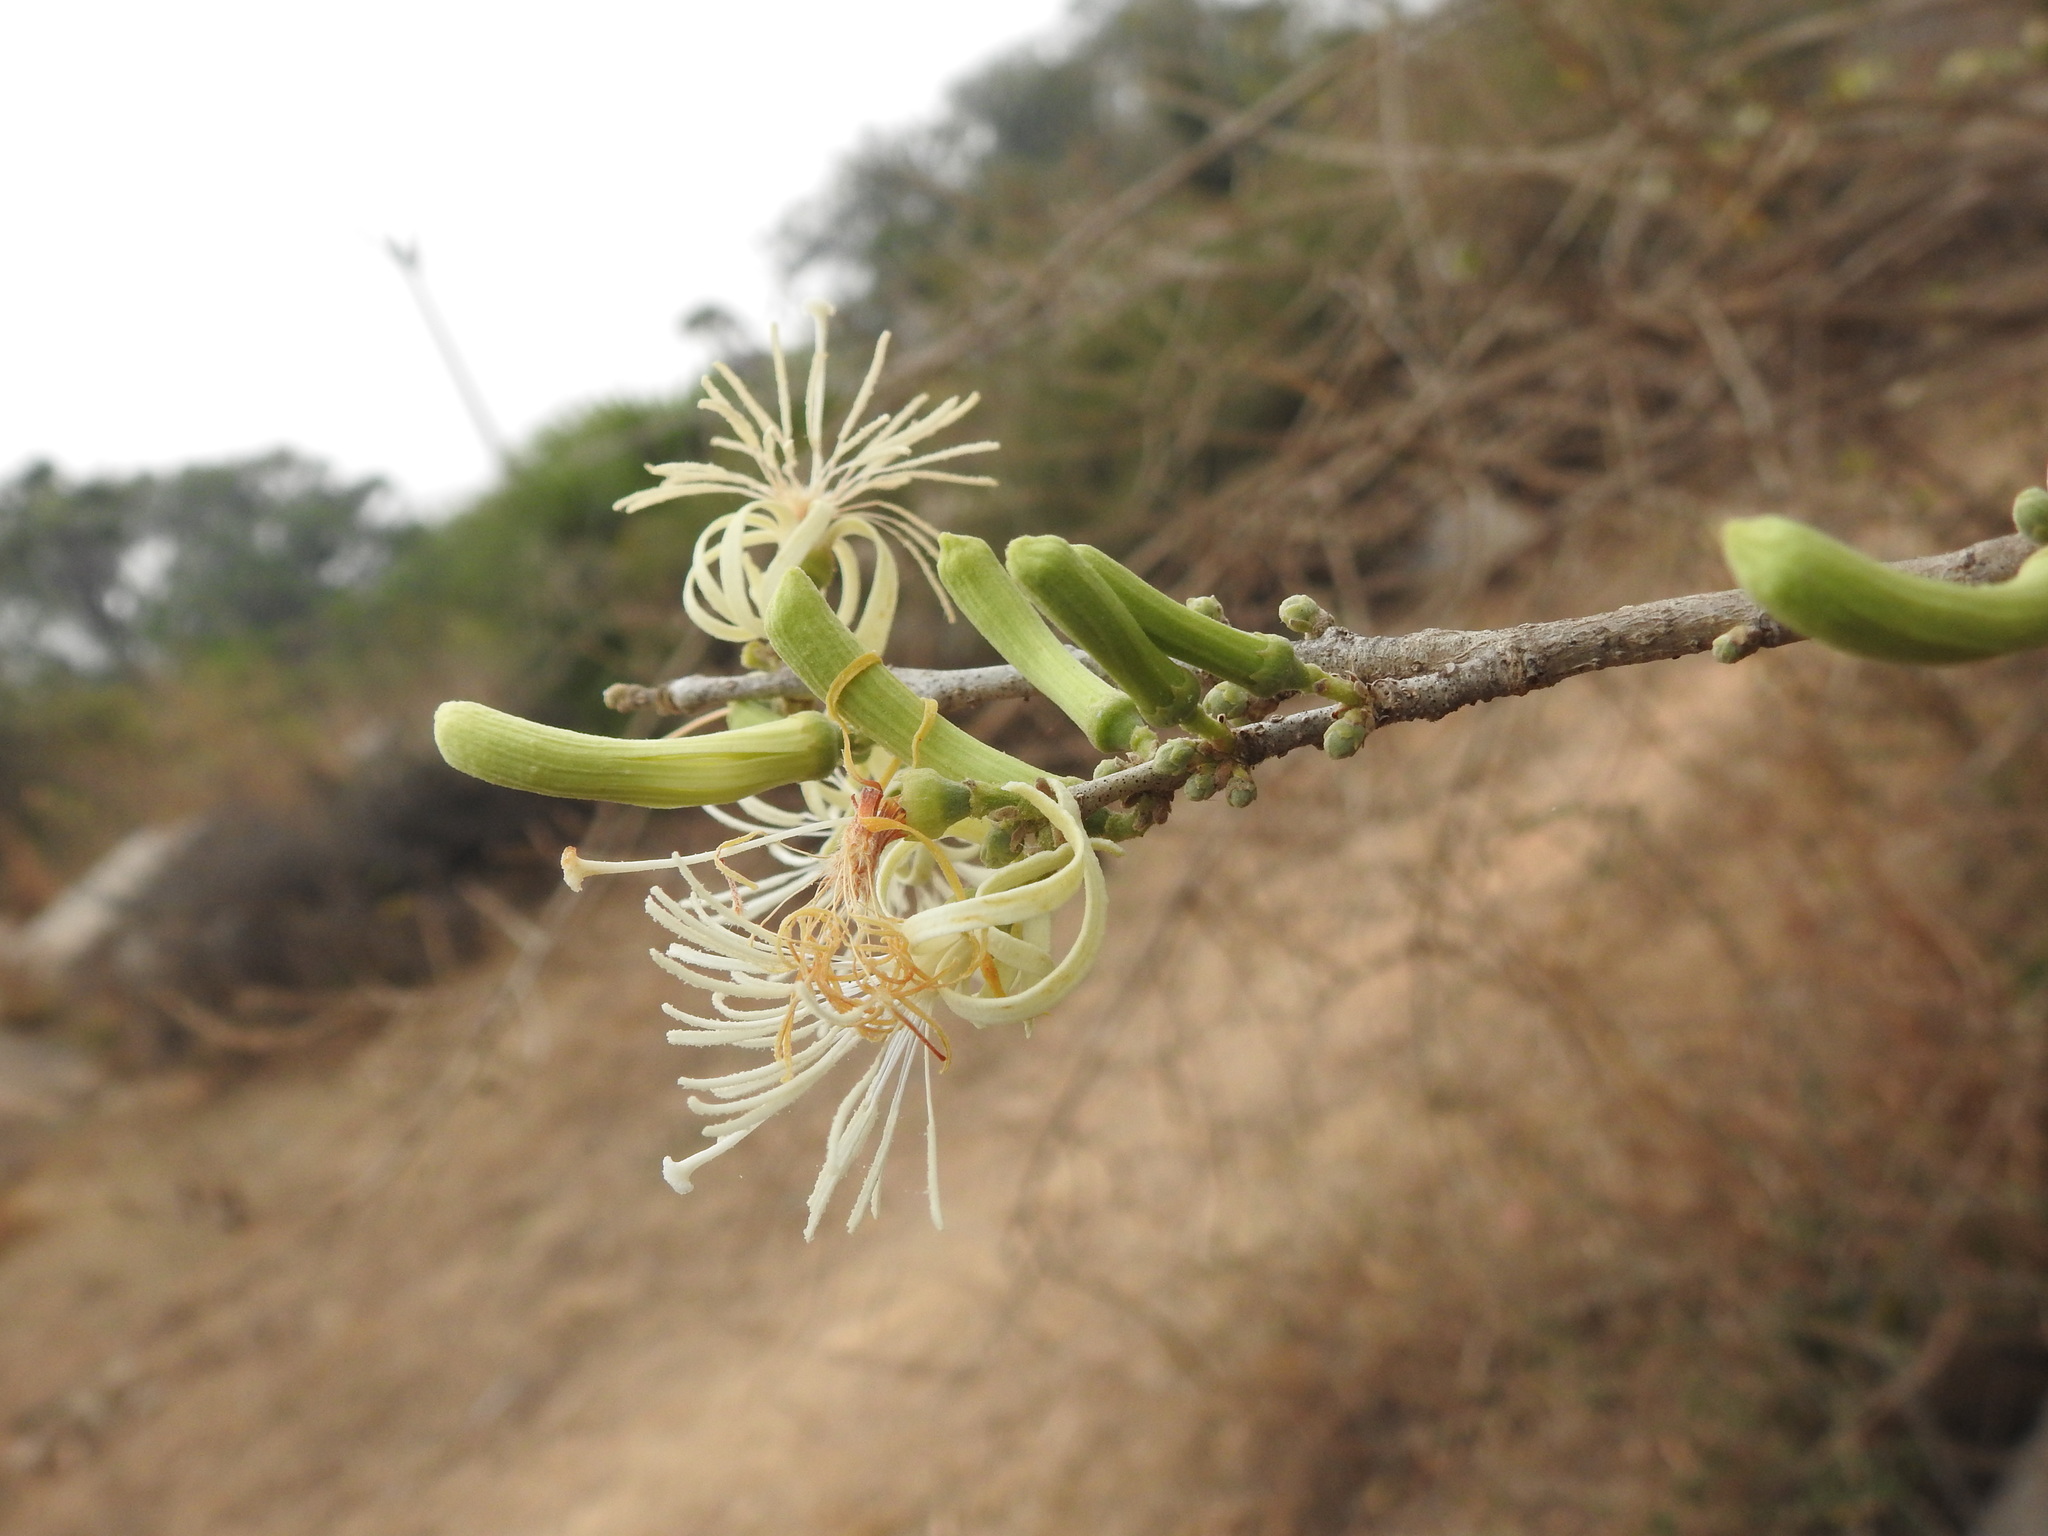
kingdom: Plantae
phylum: Tracheophyta
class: Magnoliopsida
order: Cornales
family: Cornaceae
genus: Alangium
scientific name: Alangium salviifolium
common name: Sage-leaf alangium
